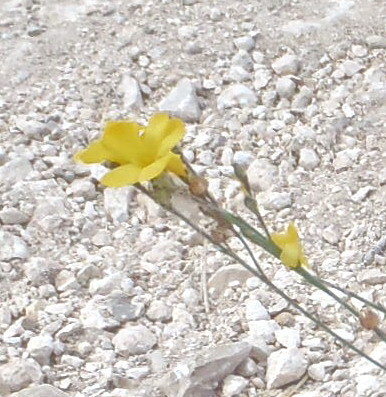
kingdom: Plantae
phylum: Tracheophyta
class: Magnoliopsida
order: Malpighiales
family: Linaceae
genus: Linum
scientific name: Linum rupestre
